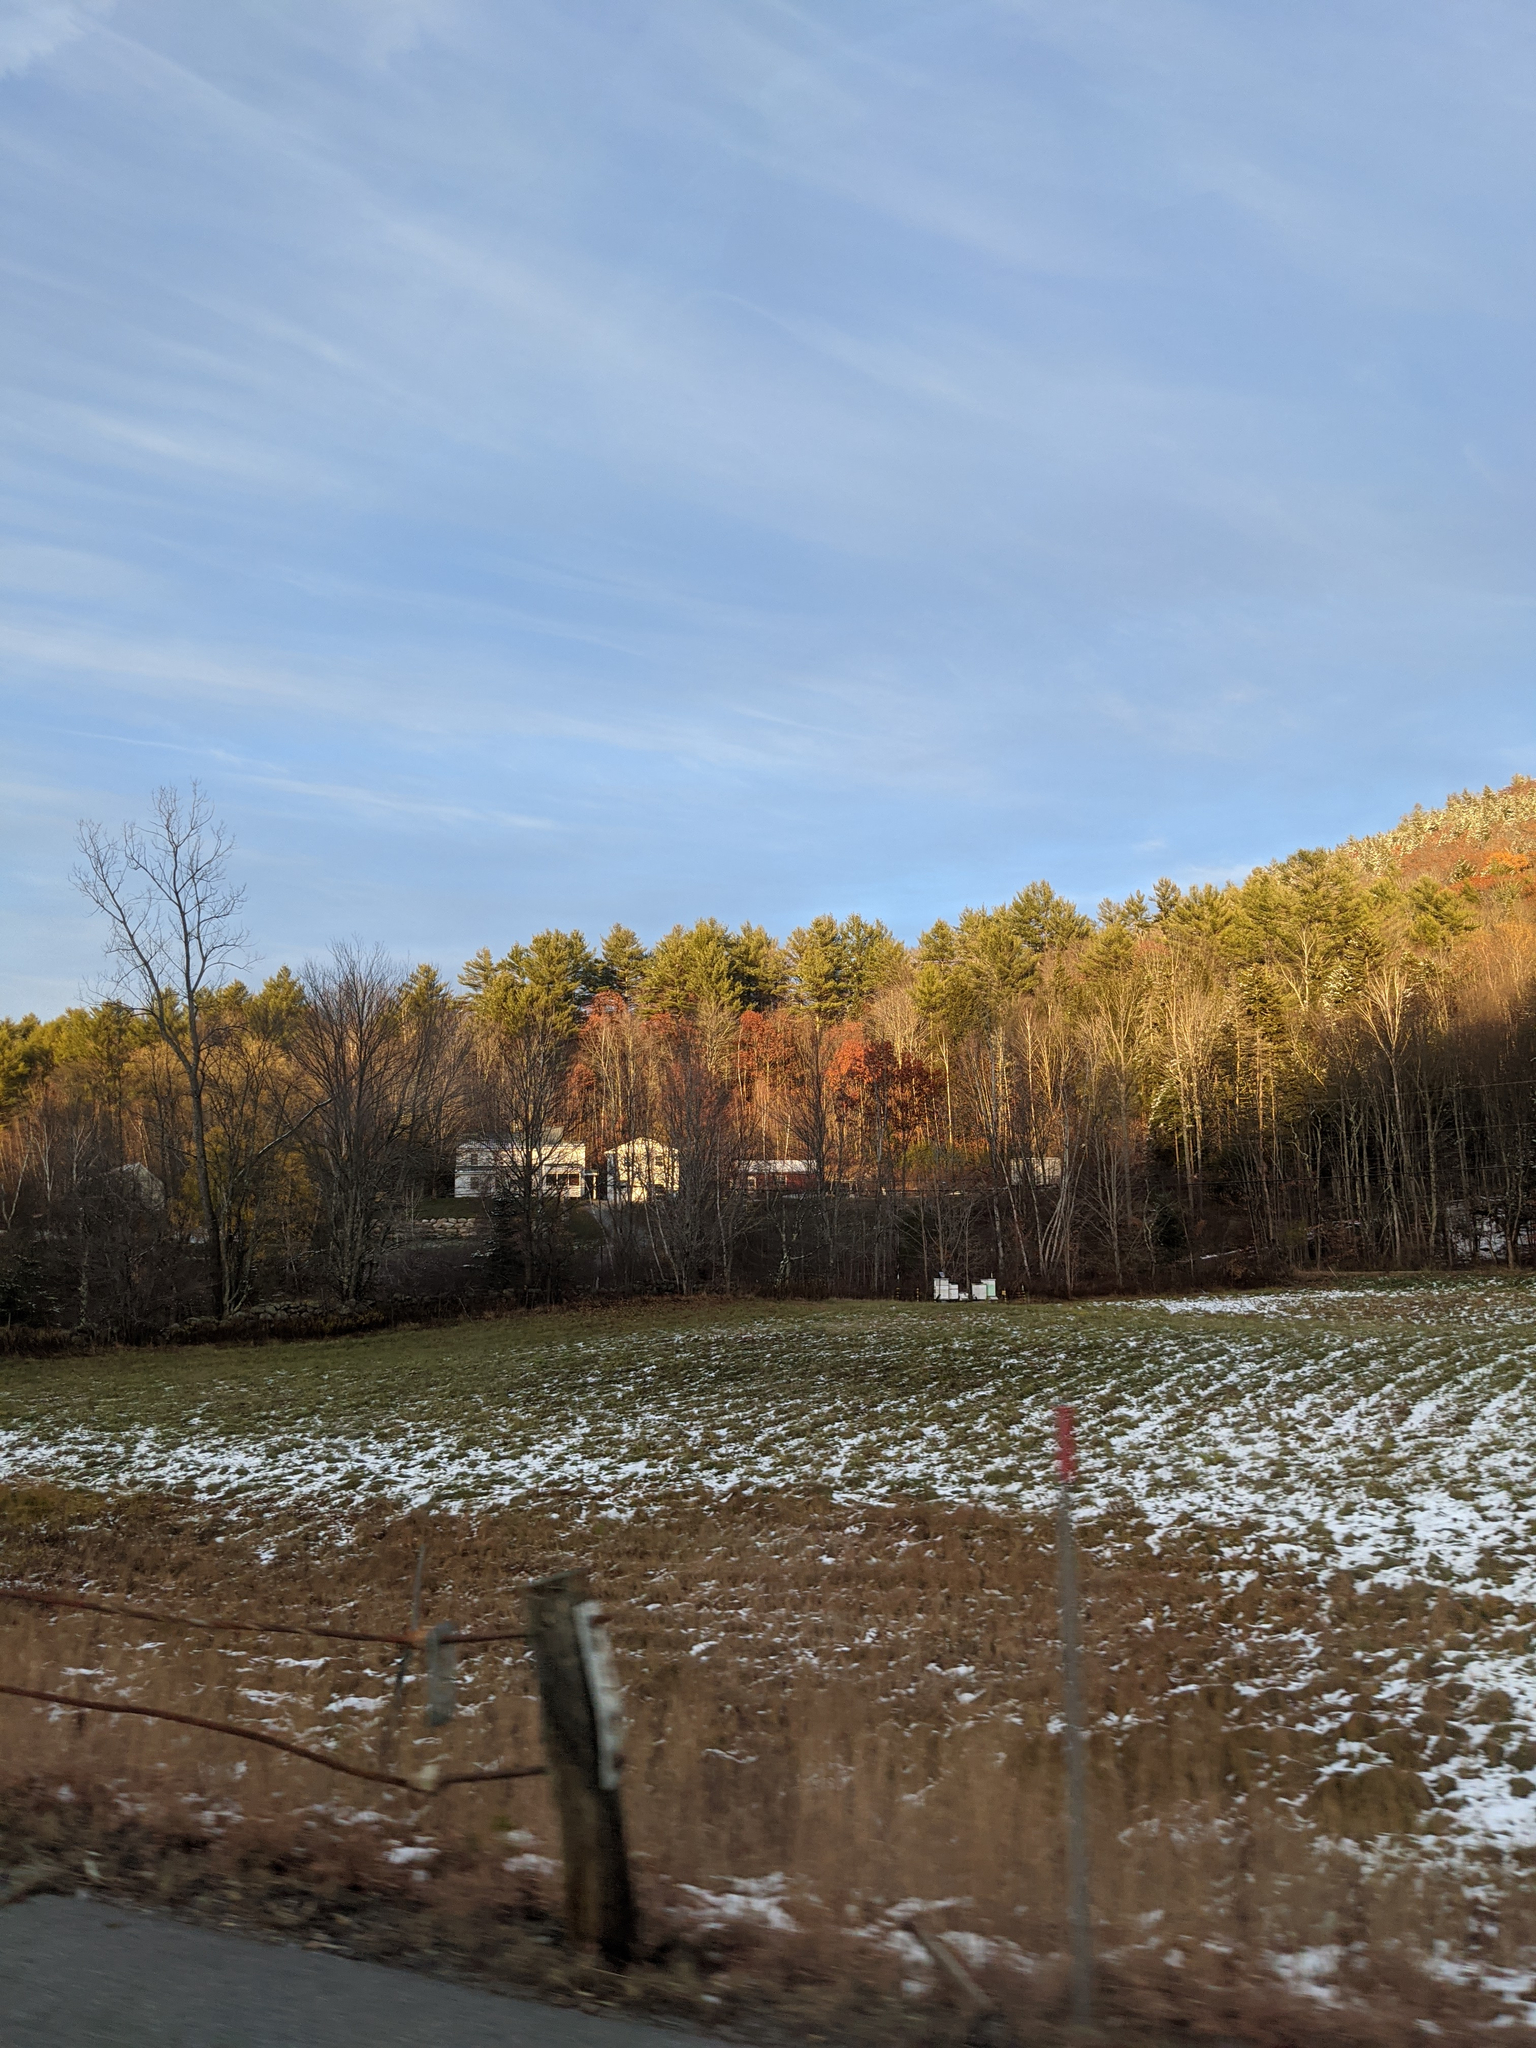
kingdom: Plantae
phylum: Tracheophyta
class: Pinopsida
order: Pinales
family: Pinaceae
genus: Pinus
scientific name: Pinus strobus
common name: Weymouth pine
